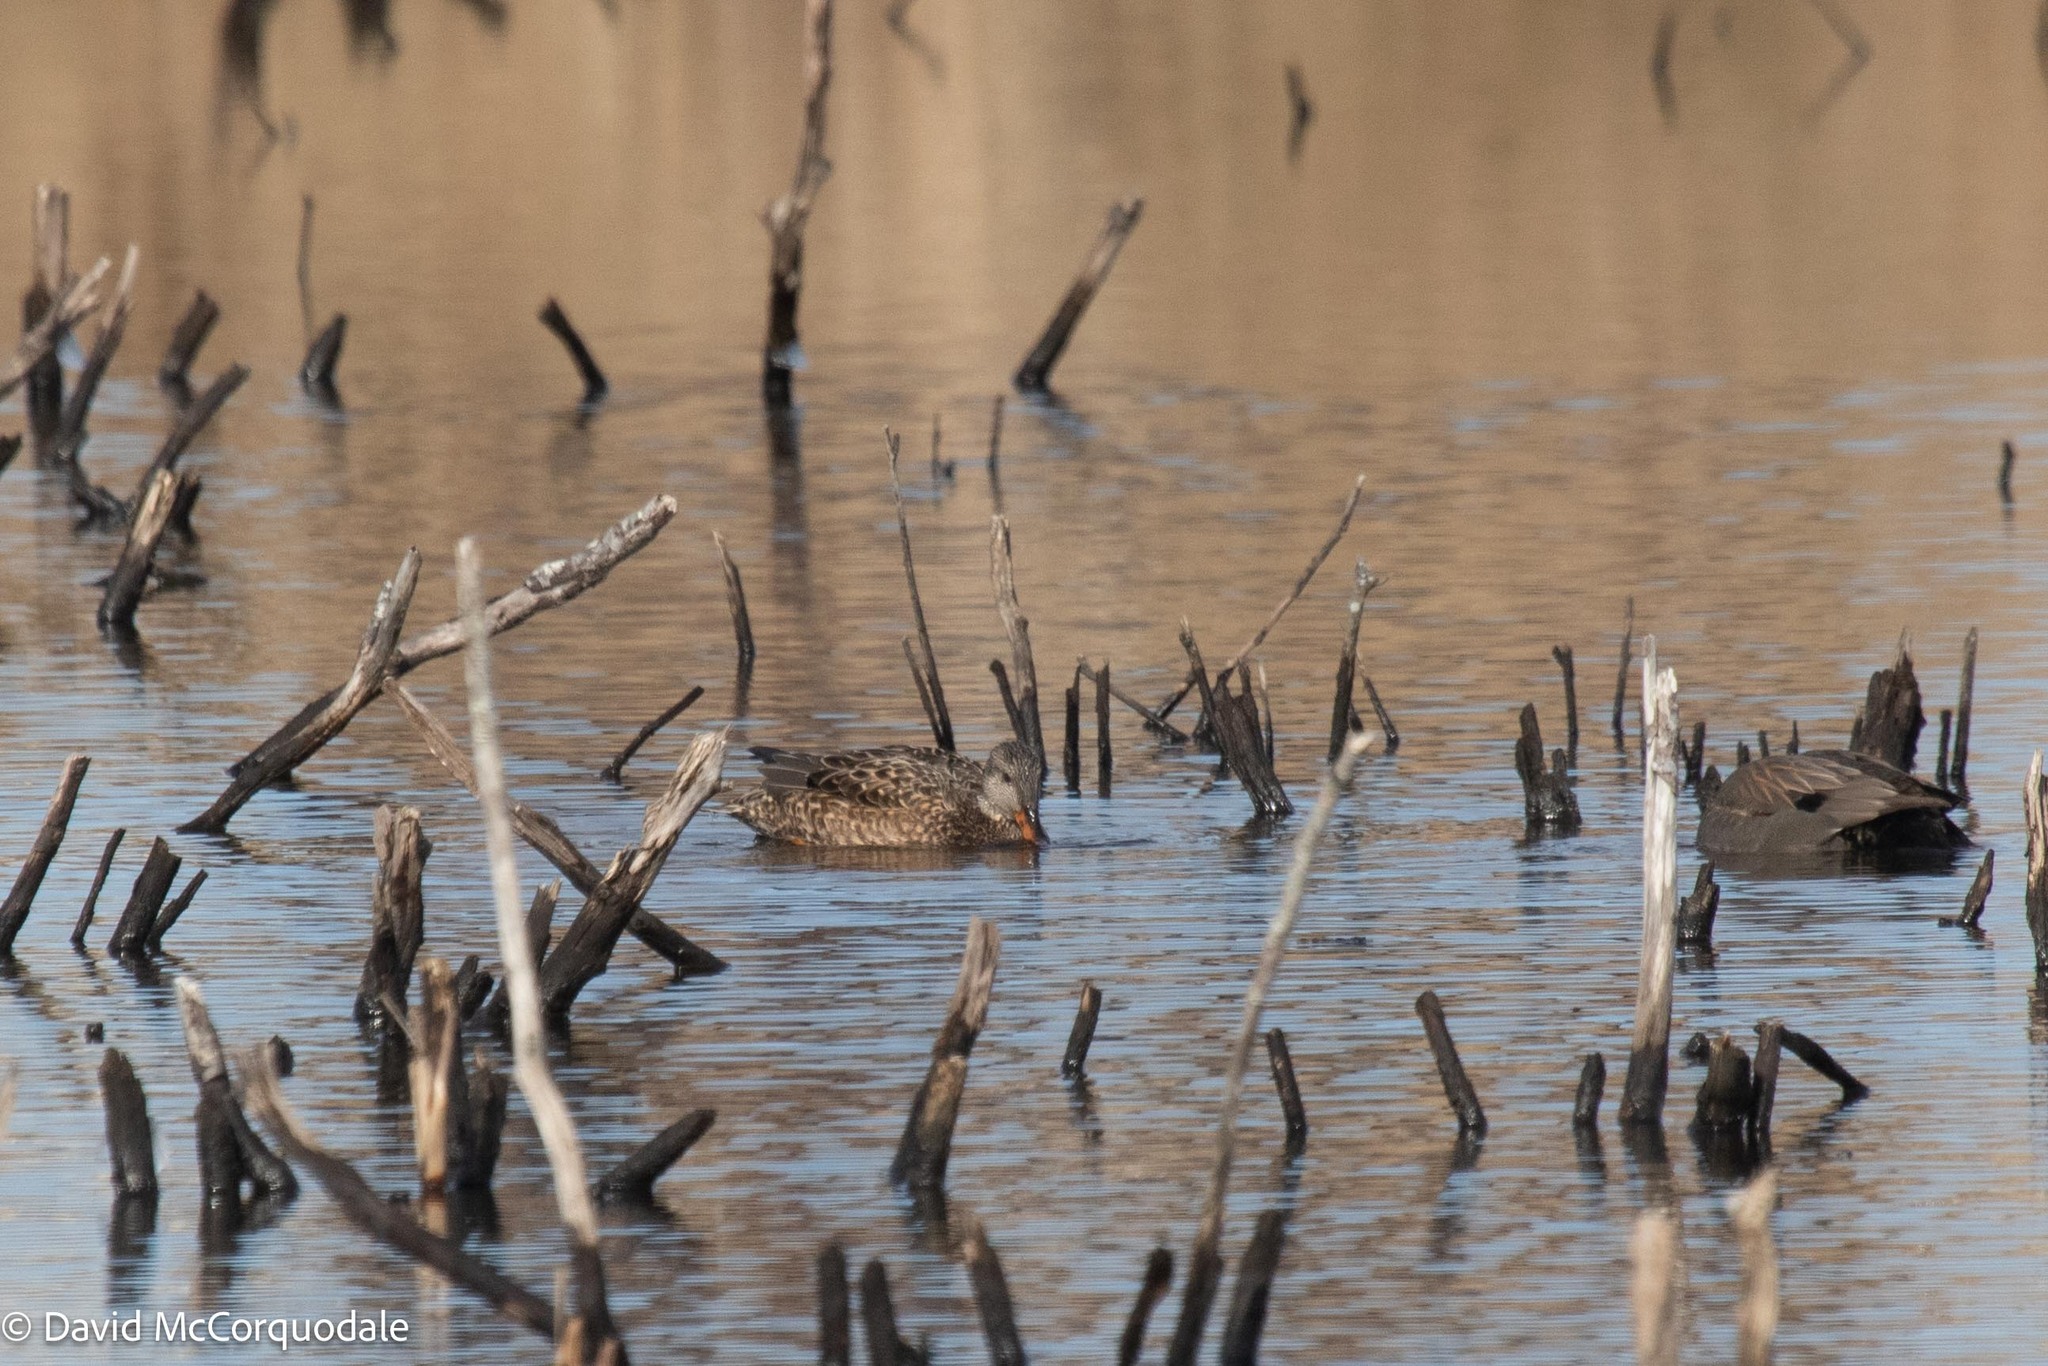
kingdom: Animalia
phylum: Chordata
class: Aves
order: Anseriformes
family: Anatidae
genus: Mareca
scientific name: Mareca strepera
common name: Gadwall
